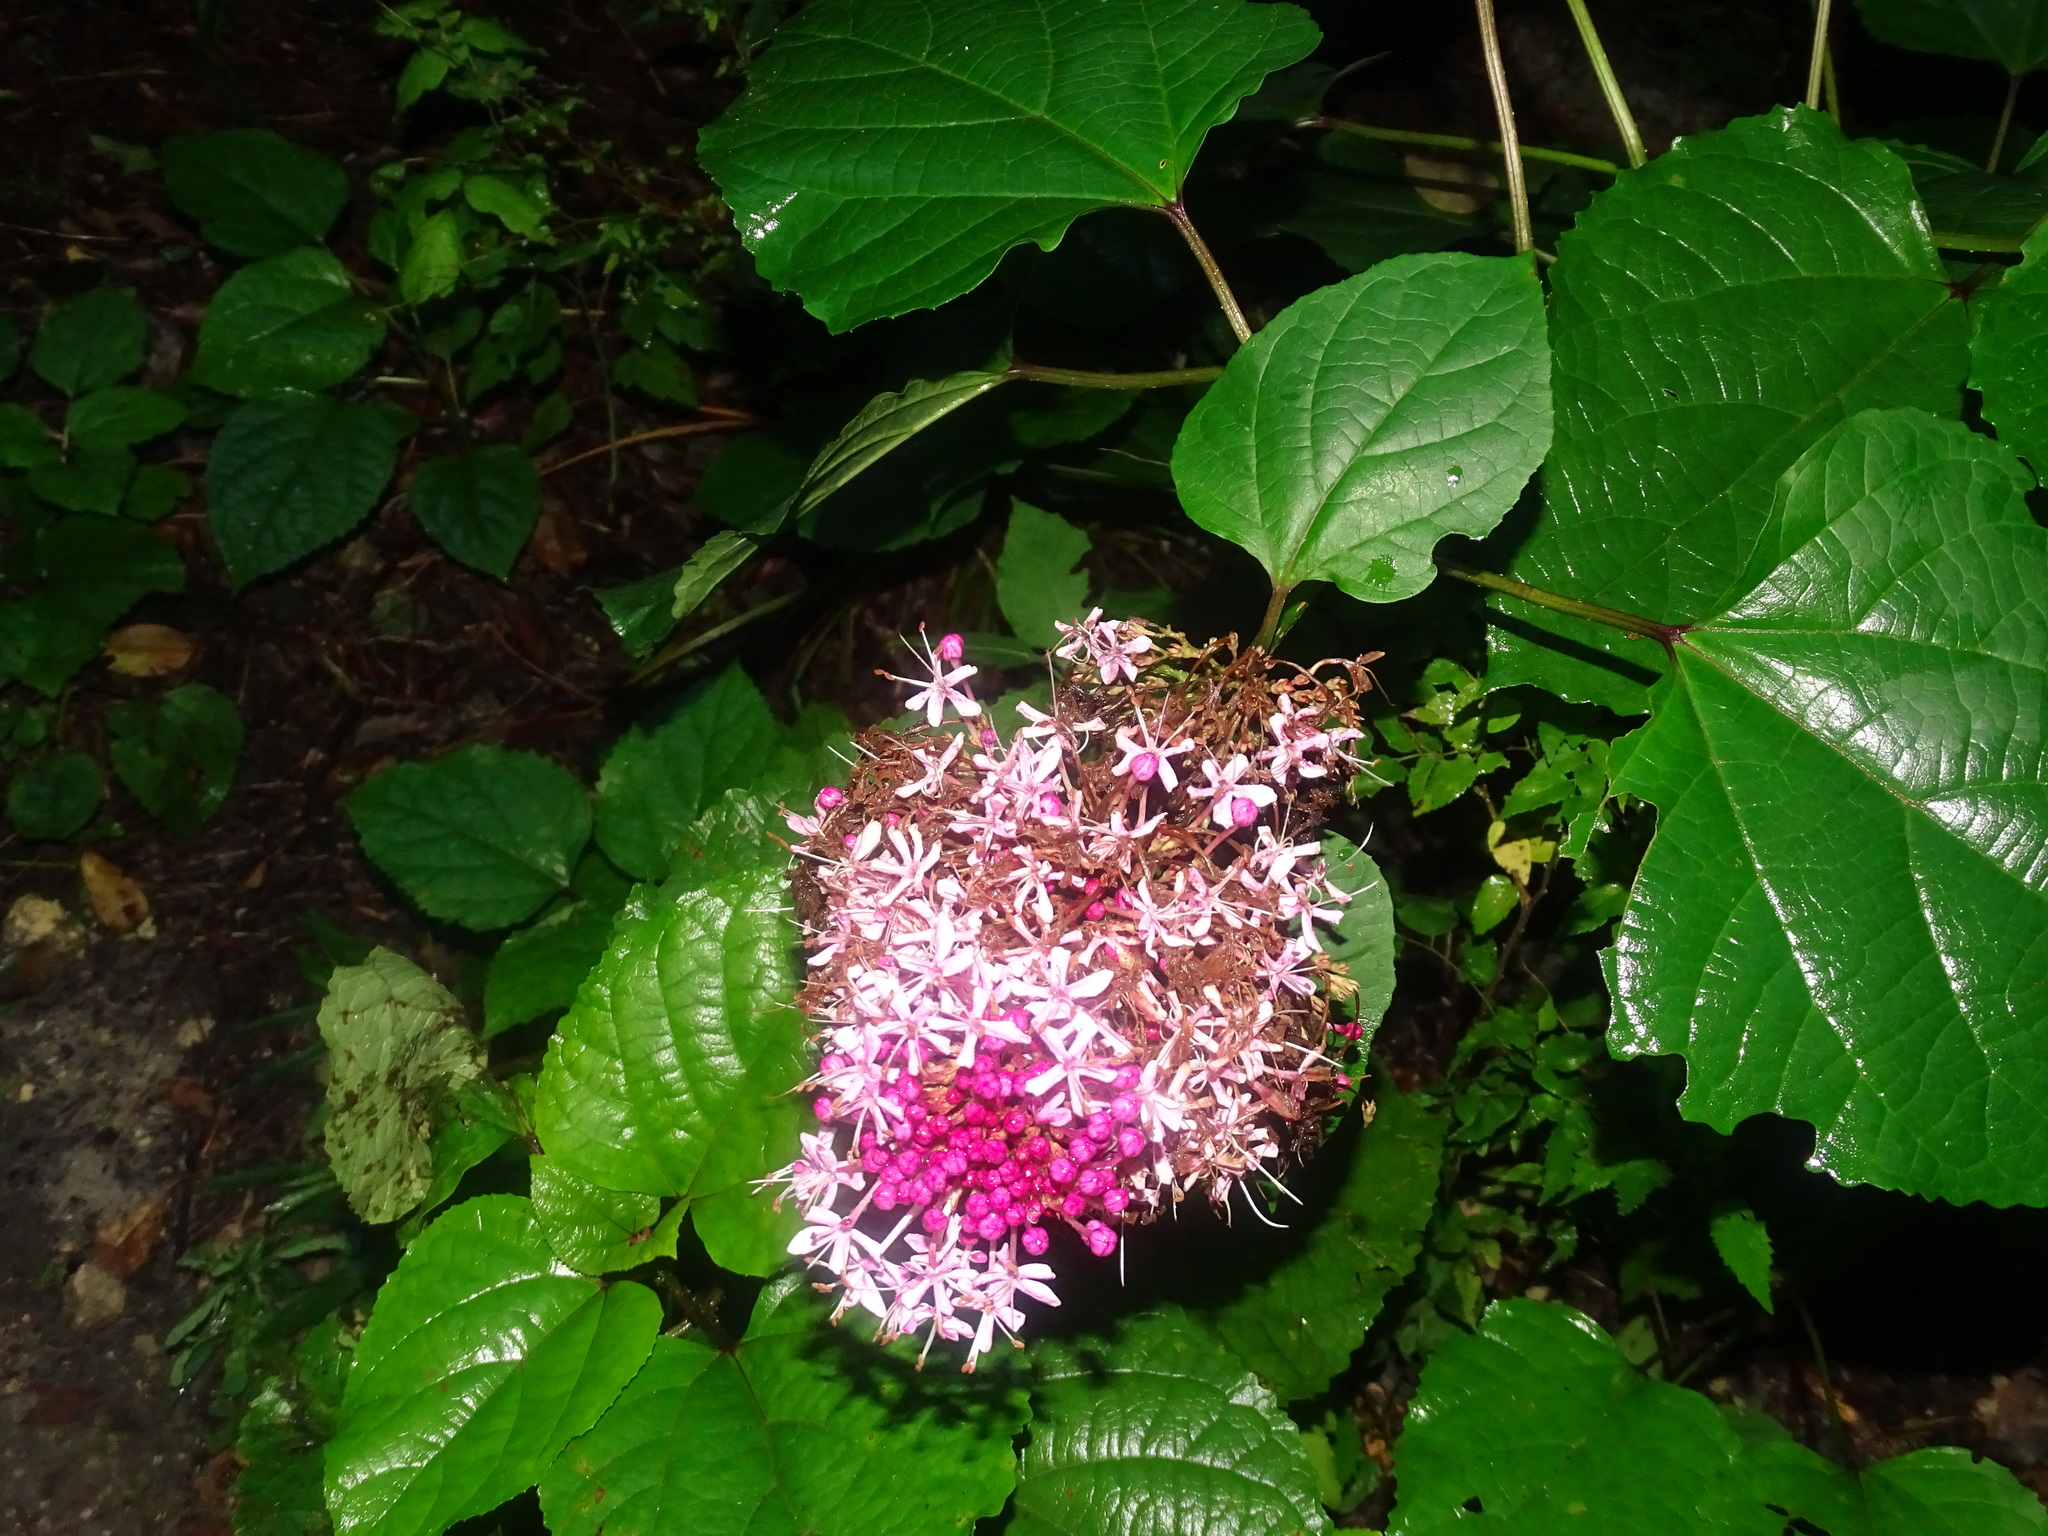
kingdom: Plantae
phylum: Tracheophyta
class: Magnoliopsida
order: Lamiales
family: Lamiaceae
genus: Clerodendrum
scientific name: Clerodendrum bungei
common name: Rose glorybower
